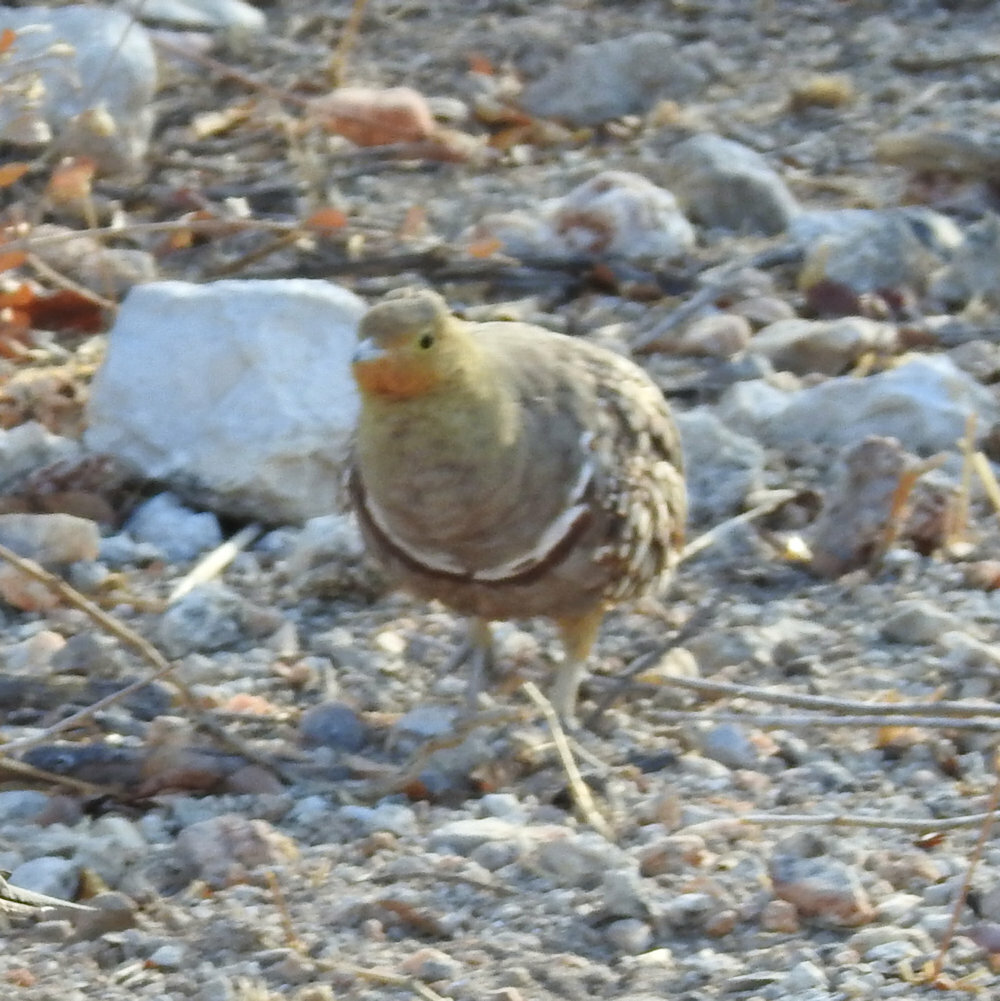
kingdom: Animalia
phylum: Chordata
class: Aves
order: Pteroclidiformes
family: Pteroclididae
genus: Pterocles
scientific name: Pterocles namaqua
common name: Namaqua sandgrouse
